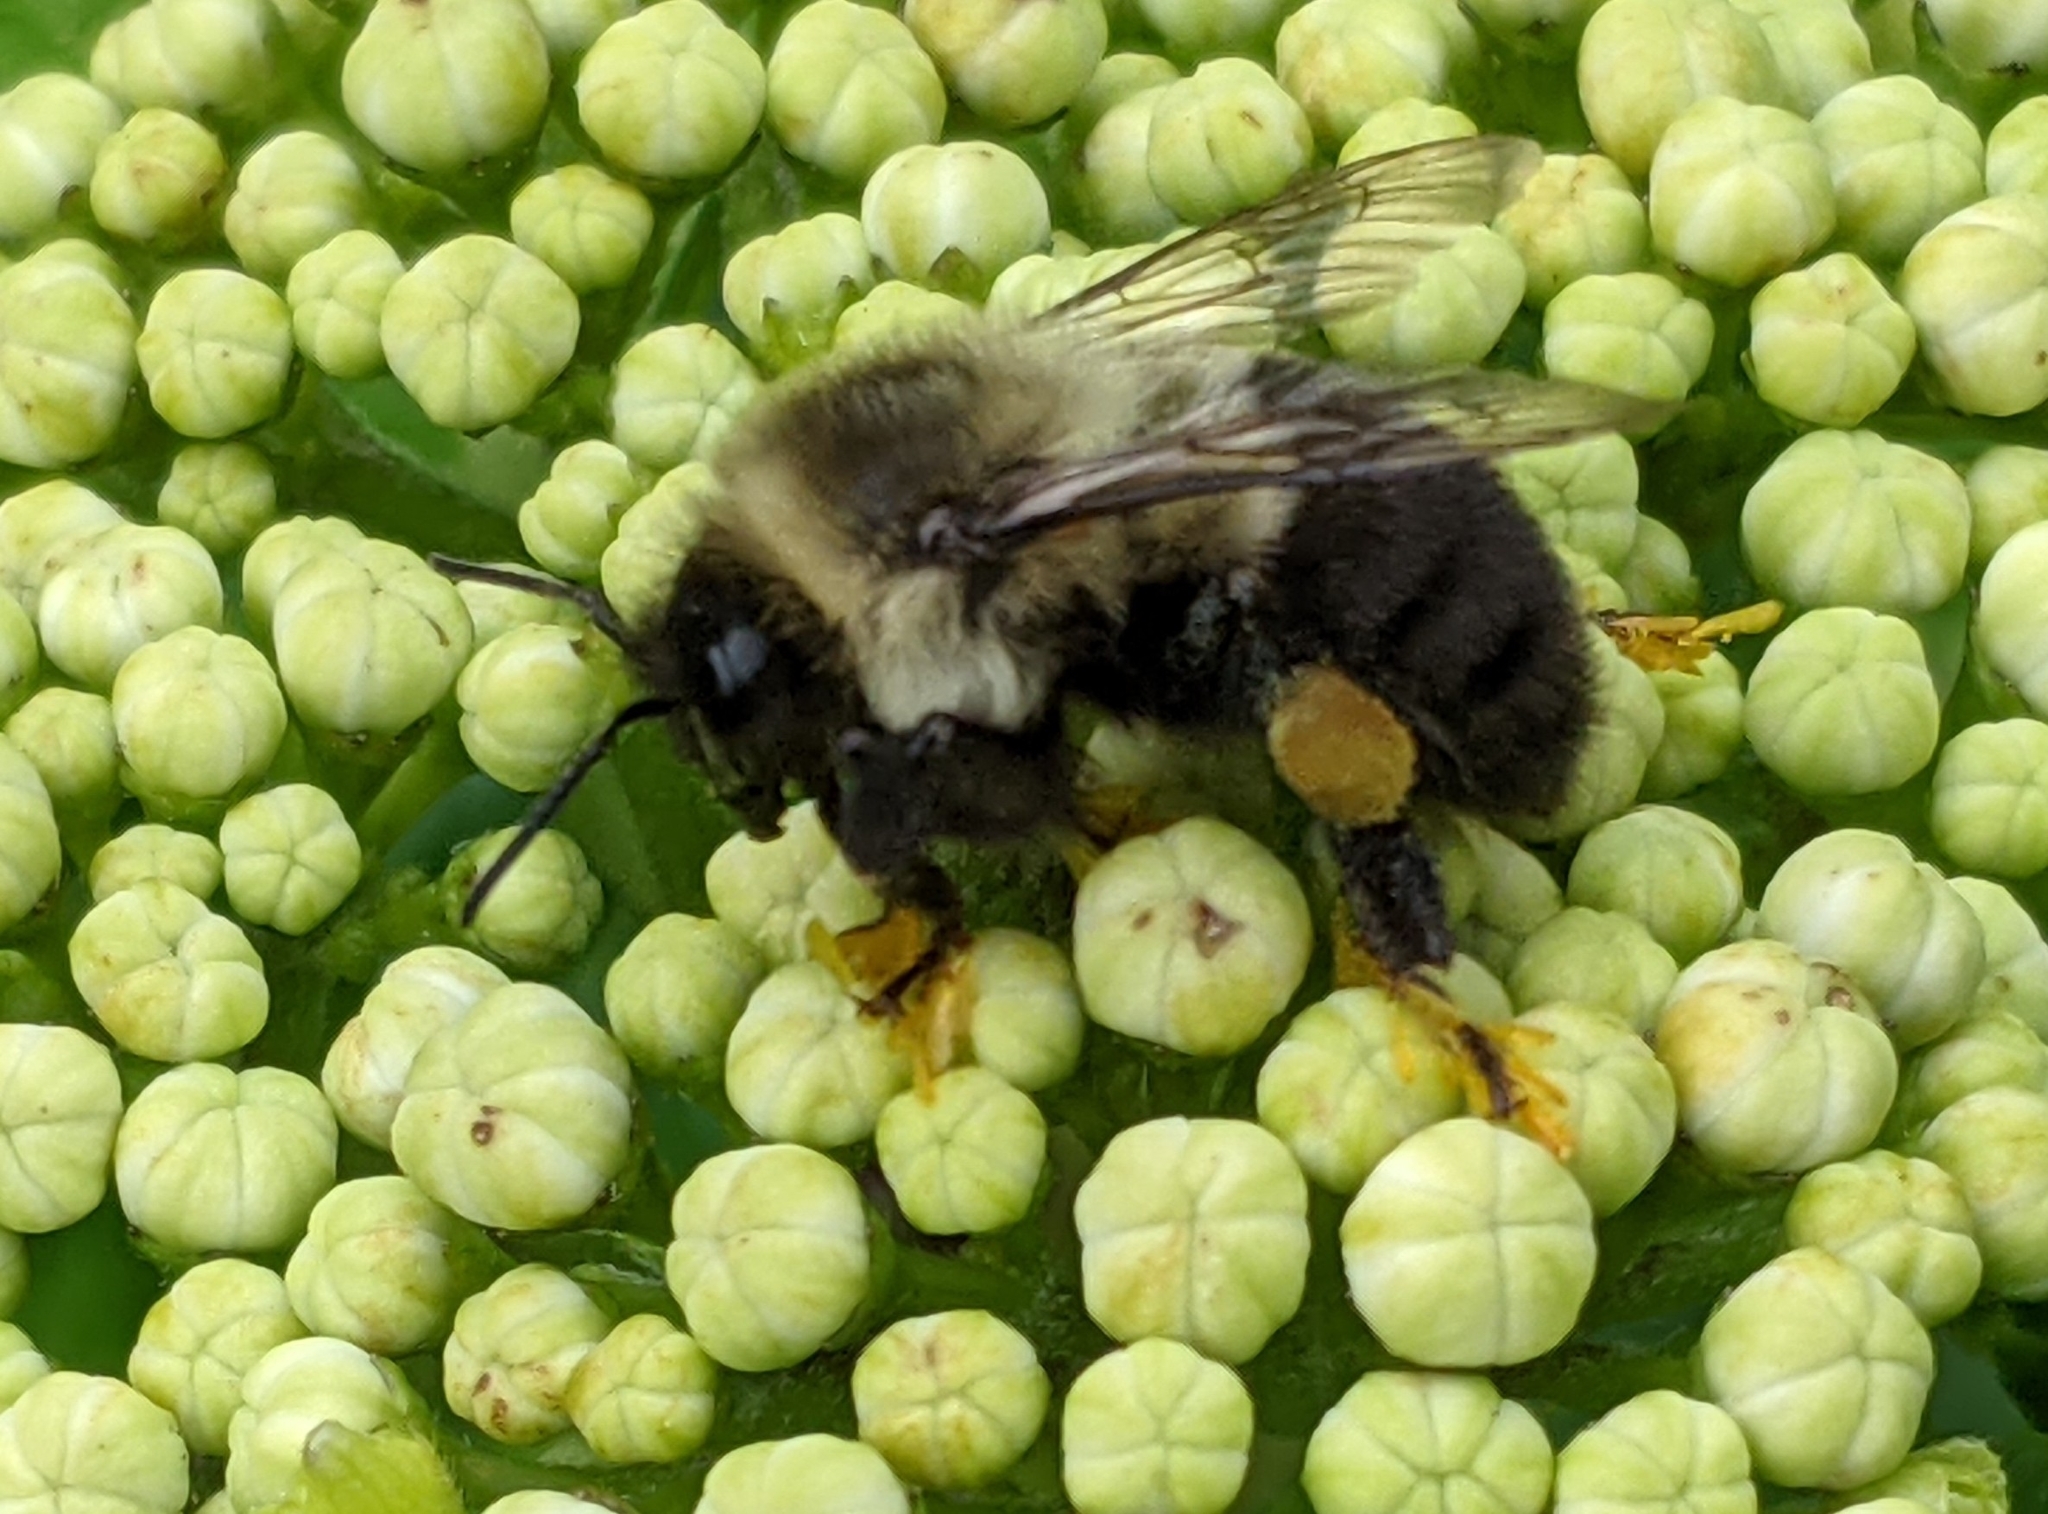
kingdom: Animalia
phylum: Arthropoda
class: Insecta
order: Hymenoptera
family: Apidae
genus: Bombus
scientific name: Bombus impatiens
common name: Common eastern bumble bee
